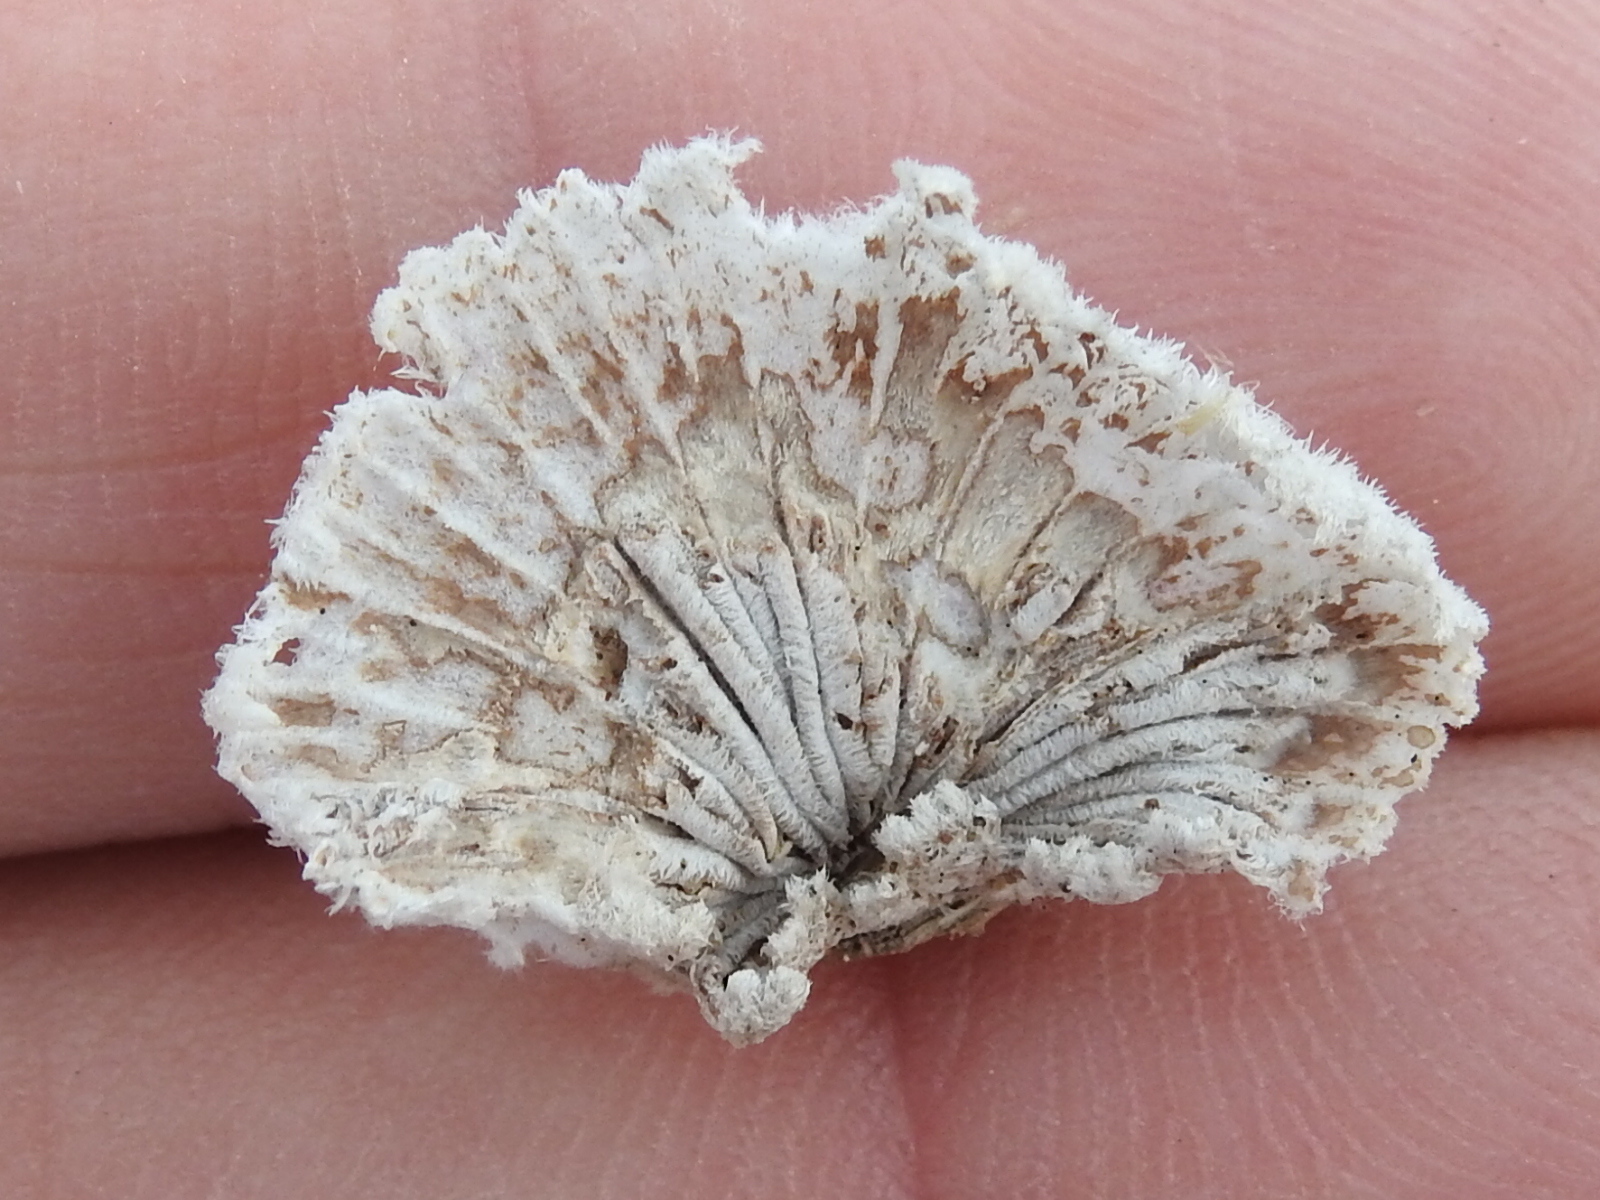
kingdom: Fungi
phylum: Basidiomycota
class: Agaricomycetes
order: Agaricales
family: Schizophyllaceae
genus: Schizophyllum
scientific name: Schizophyllum commune
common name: Common porecrust
